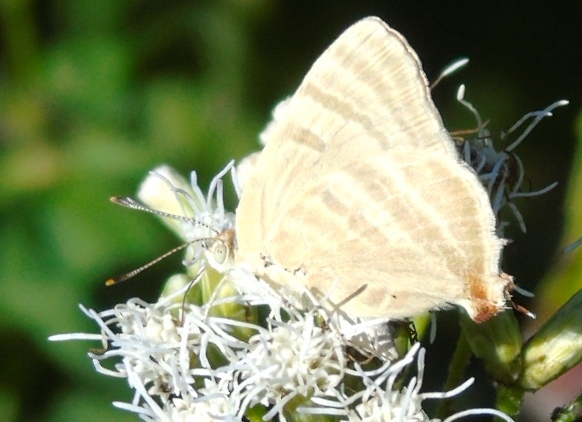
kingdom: Animalia
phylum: Arthropoda
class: Insecta
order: Lepidoptera
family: Lycaenidae
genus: Dolymorpha
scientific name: Dolymorpha jada
